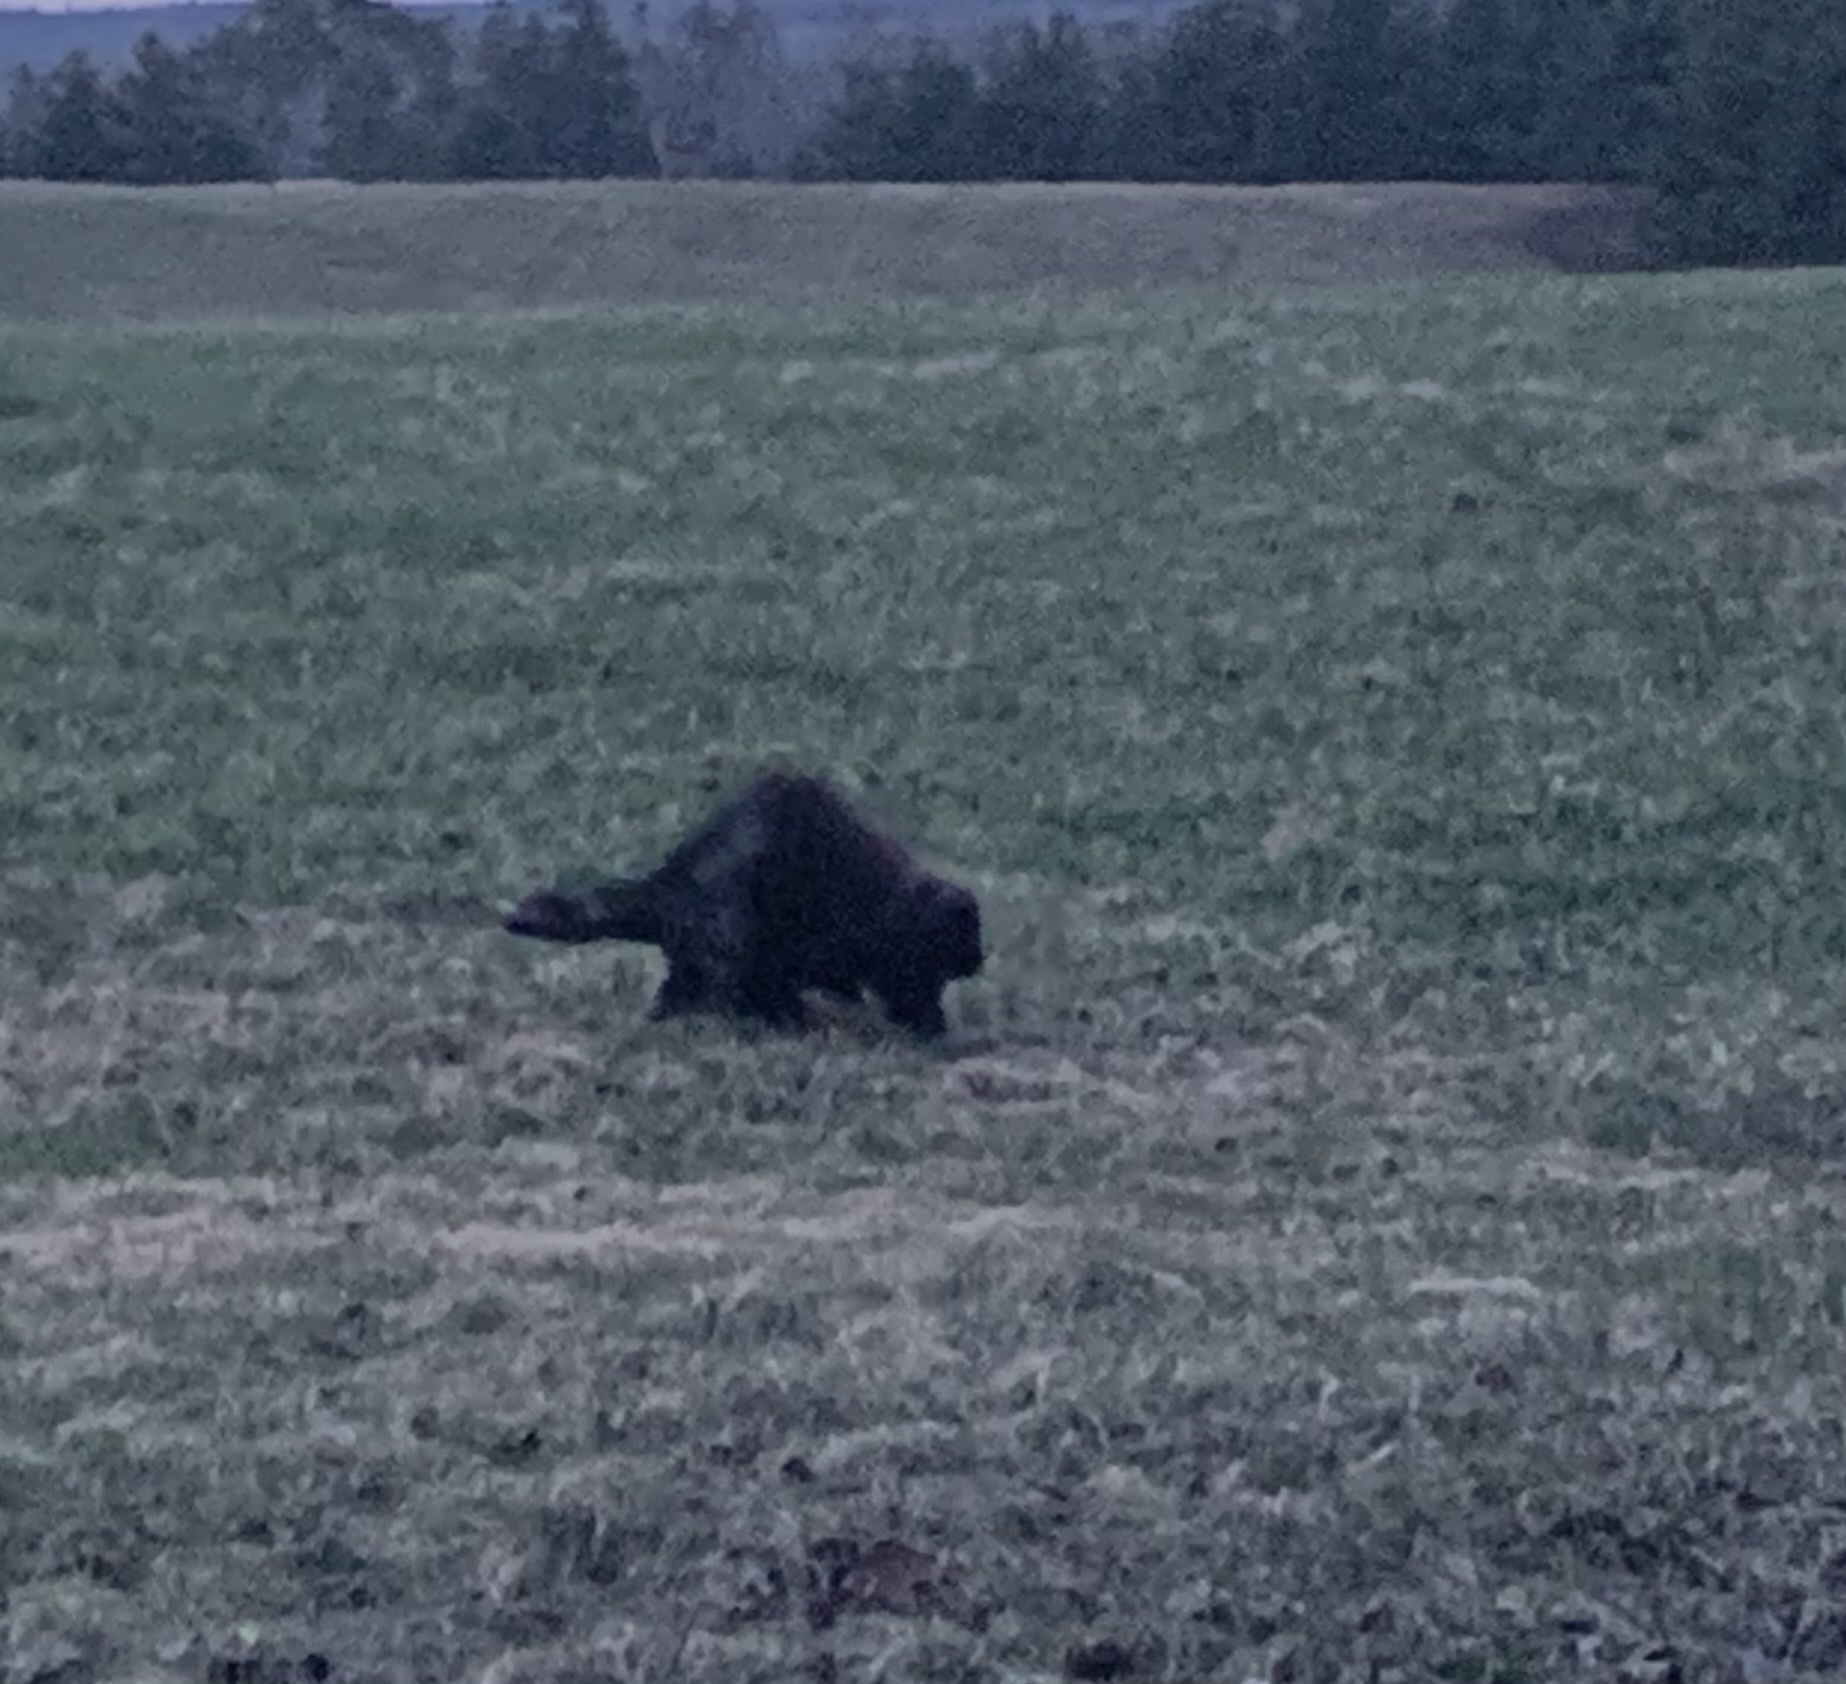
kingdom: Animalia
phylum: Chordata
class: Mammalia
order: Rodentia
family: Erethizontidae
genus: Erethizon
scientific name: Erethizon dorsatus
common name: North american porcupine
